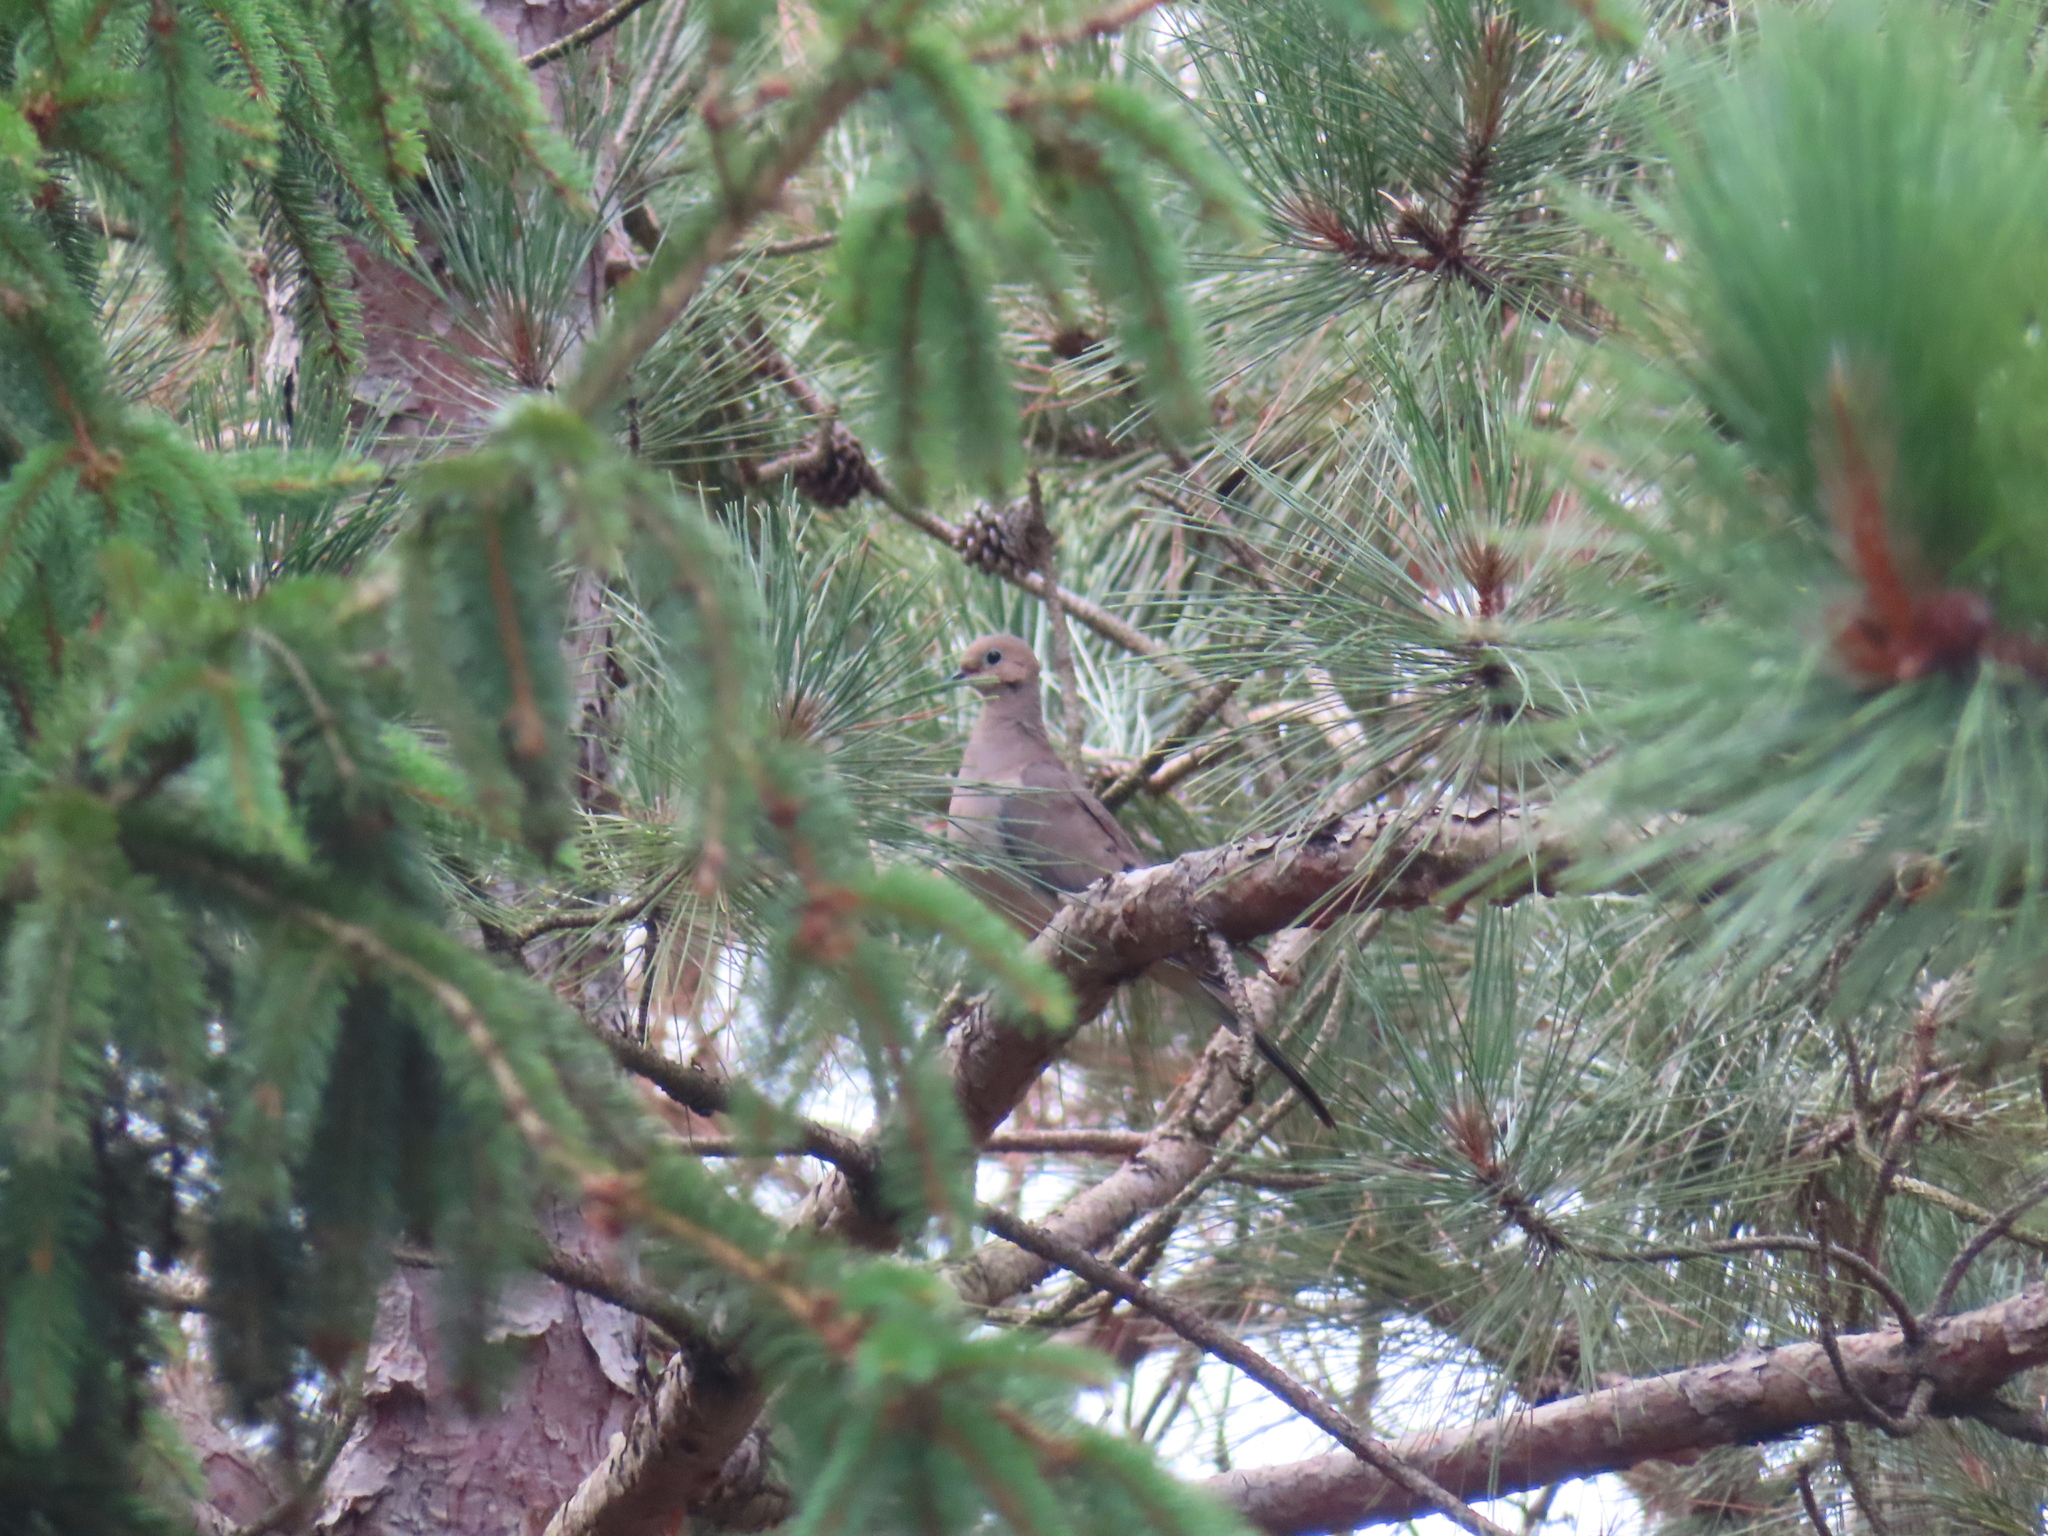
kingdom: Animalia
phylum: Chordata
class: Aves
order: Columbiformes
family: Columbidae
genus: Zenaida
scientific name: Zenaida macroura
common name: Mourning dove
